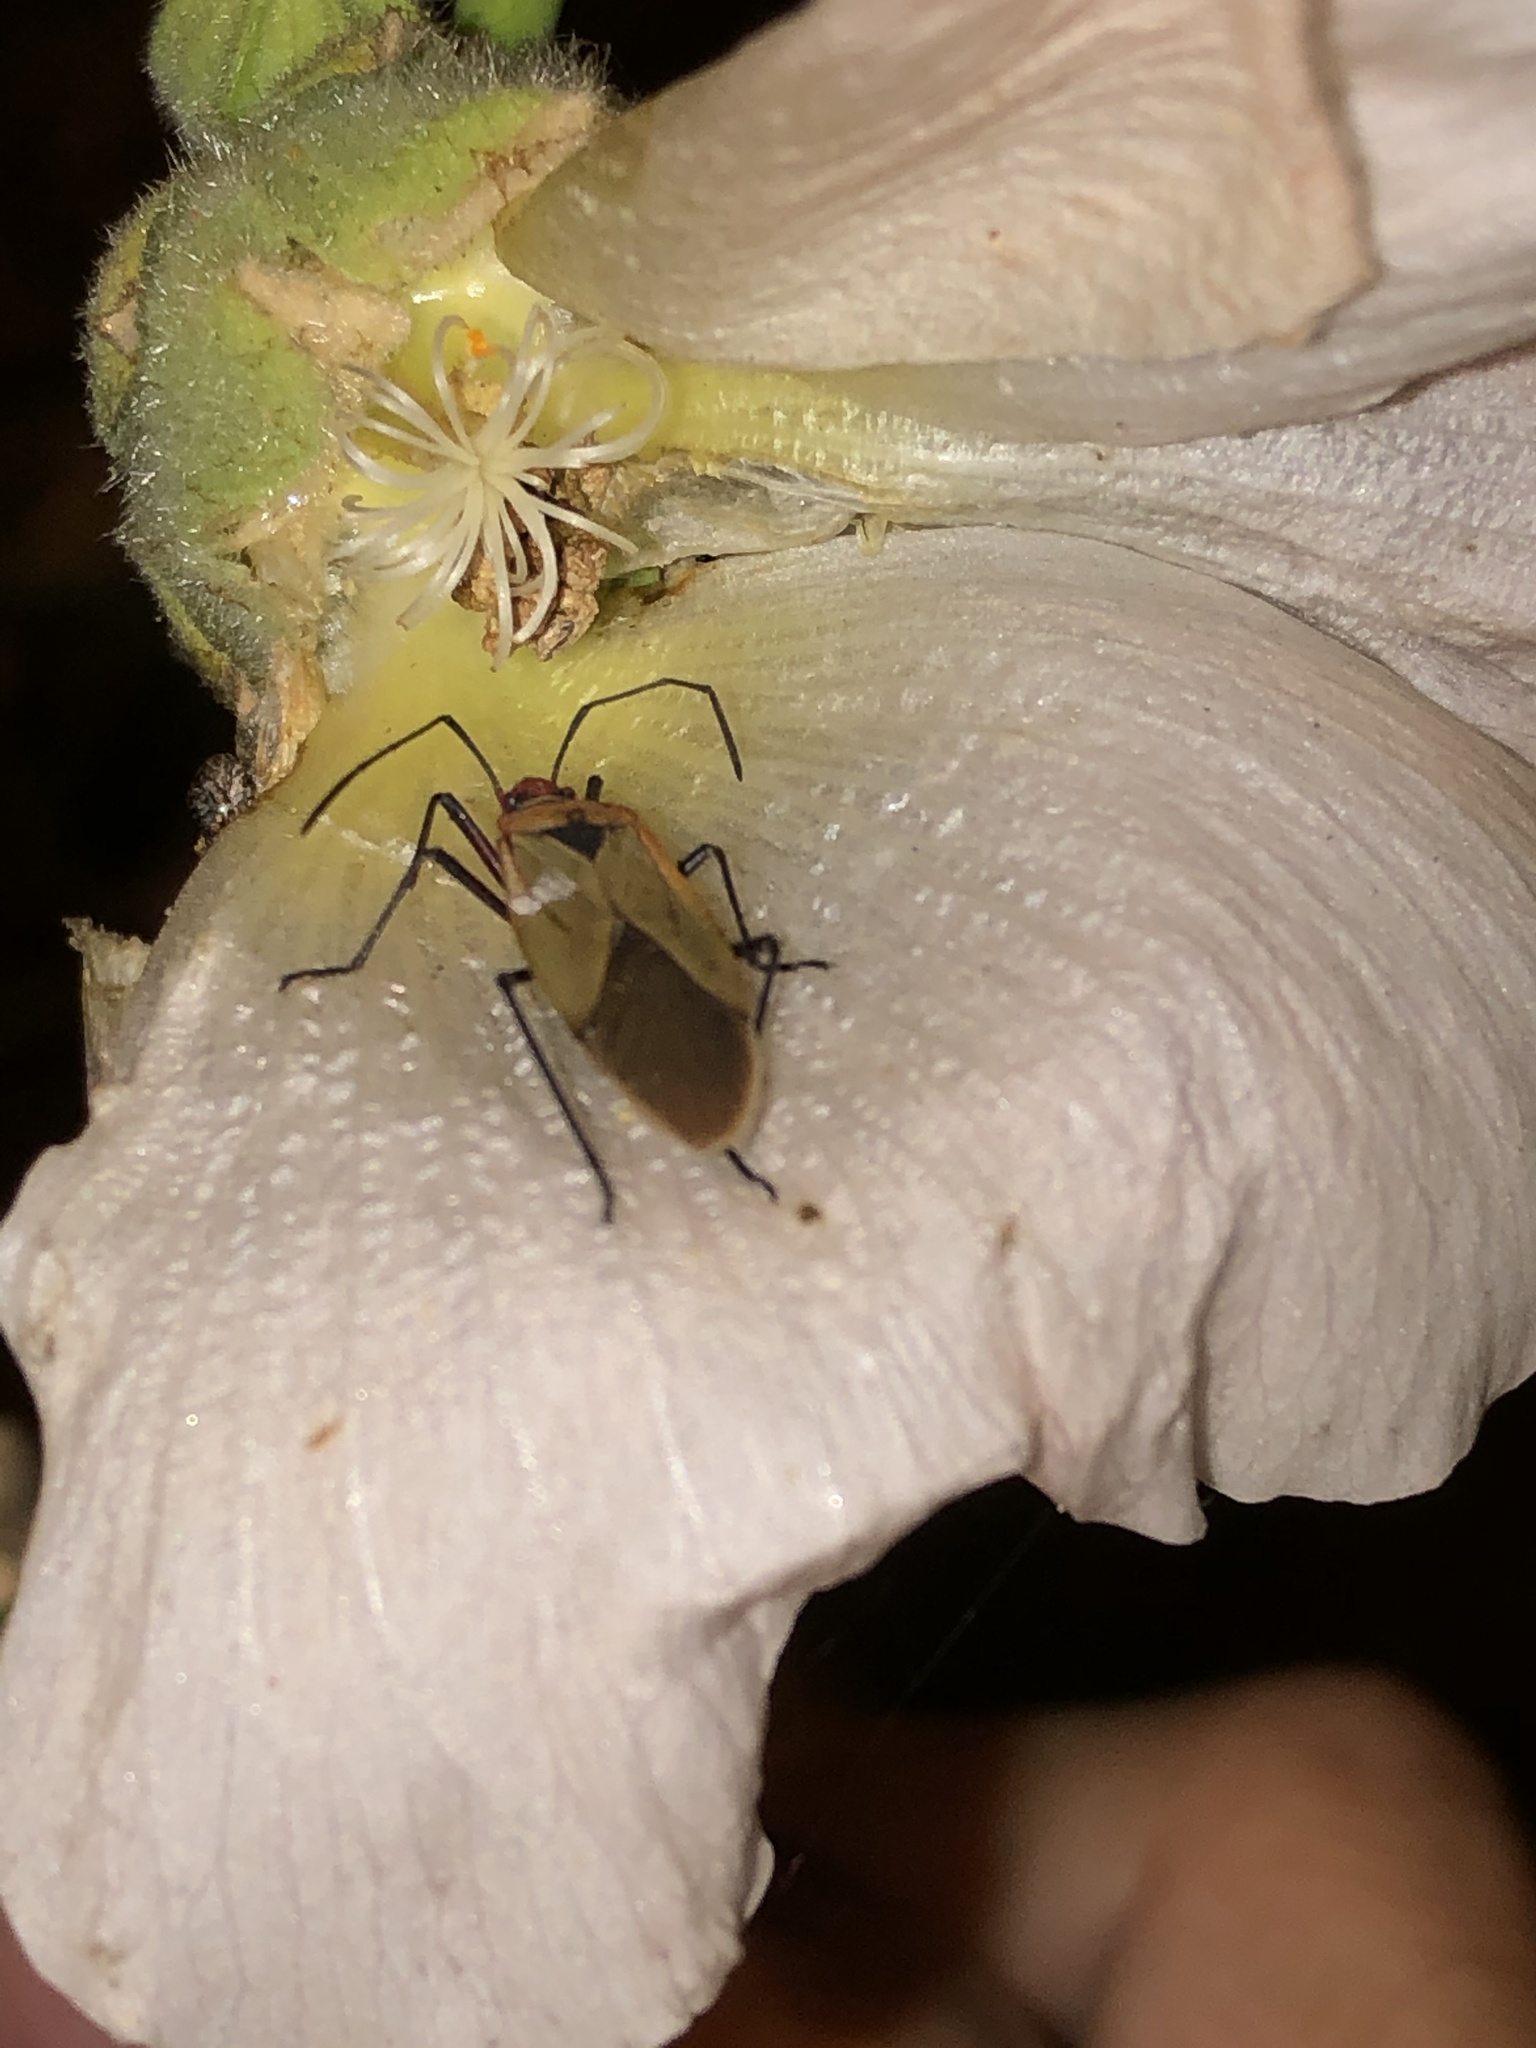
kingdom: Animalia
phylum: Arthropoda
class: Insecta
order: Hemiptera
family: Pyrrhocoridae
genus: Dysdercus
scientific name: Dysdercus peruvianus
